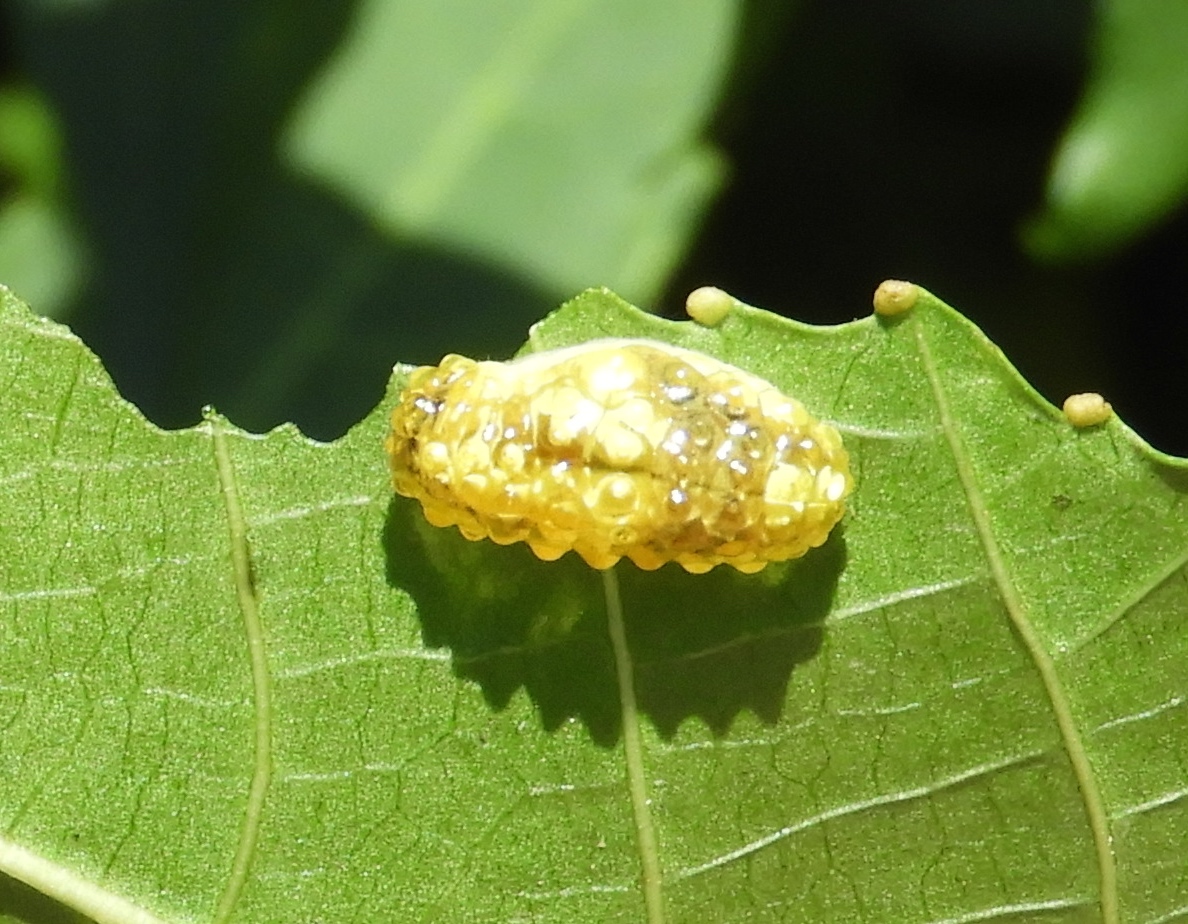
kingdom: Animalia
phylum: Arthropoda
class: Insecta
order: Lepidoptera
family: Dalceridae
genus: Acraga
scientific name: Acraga
